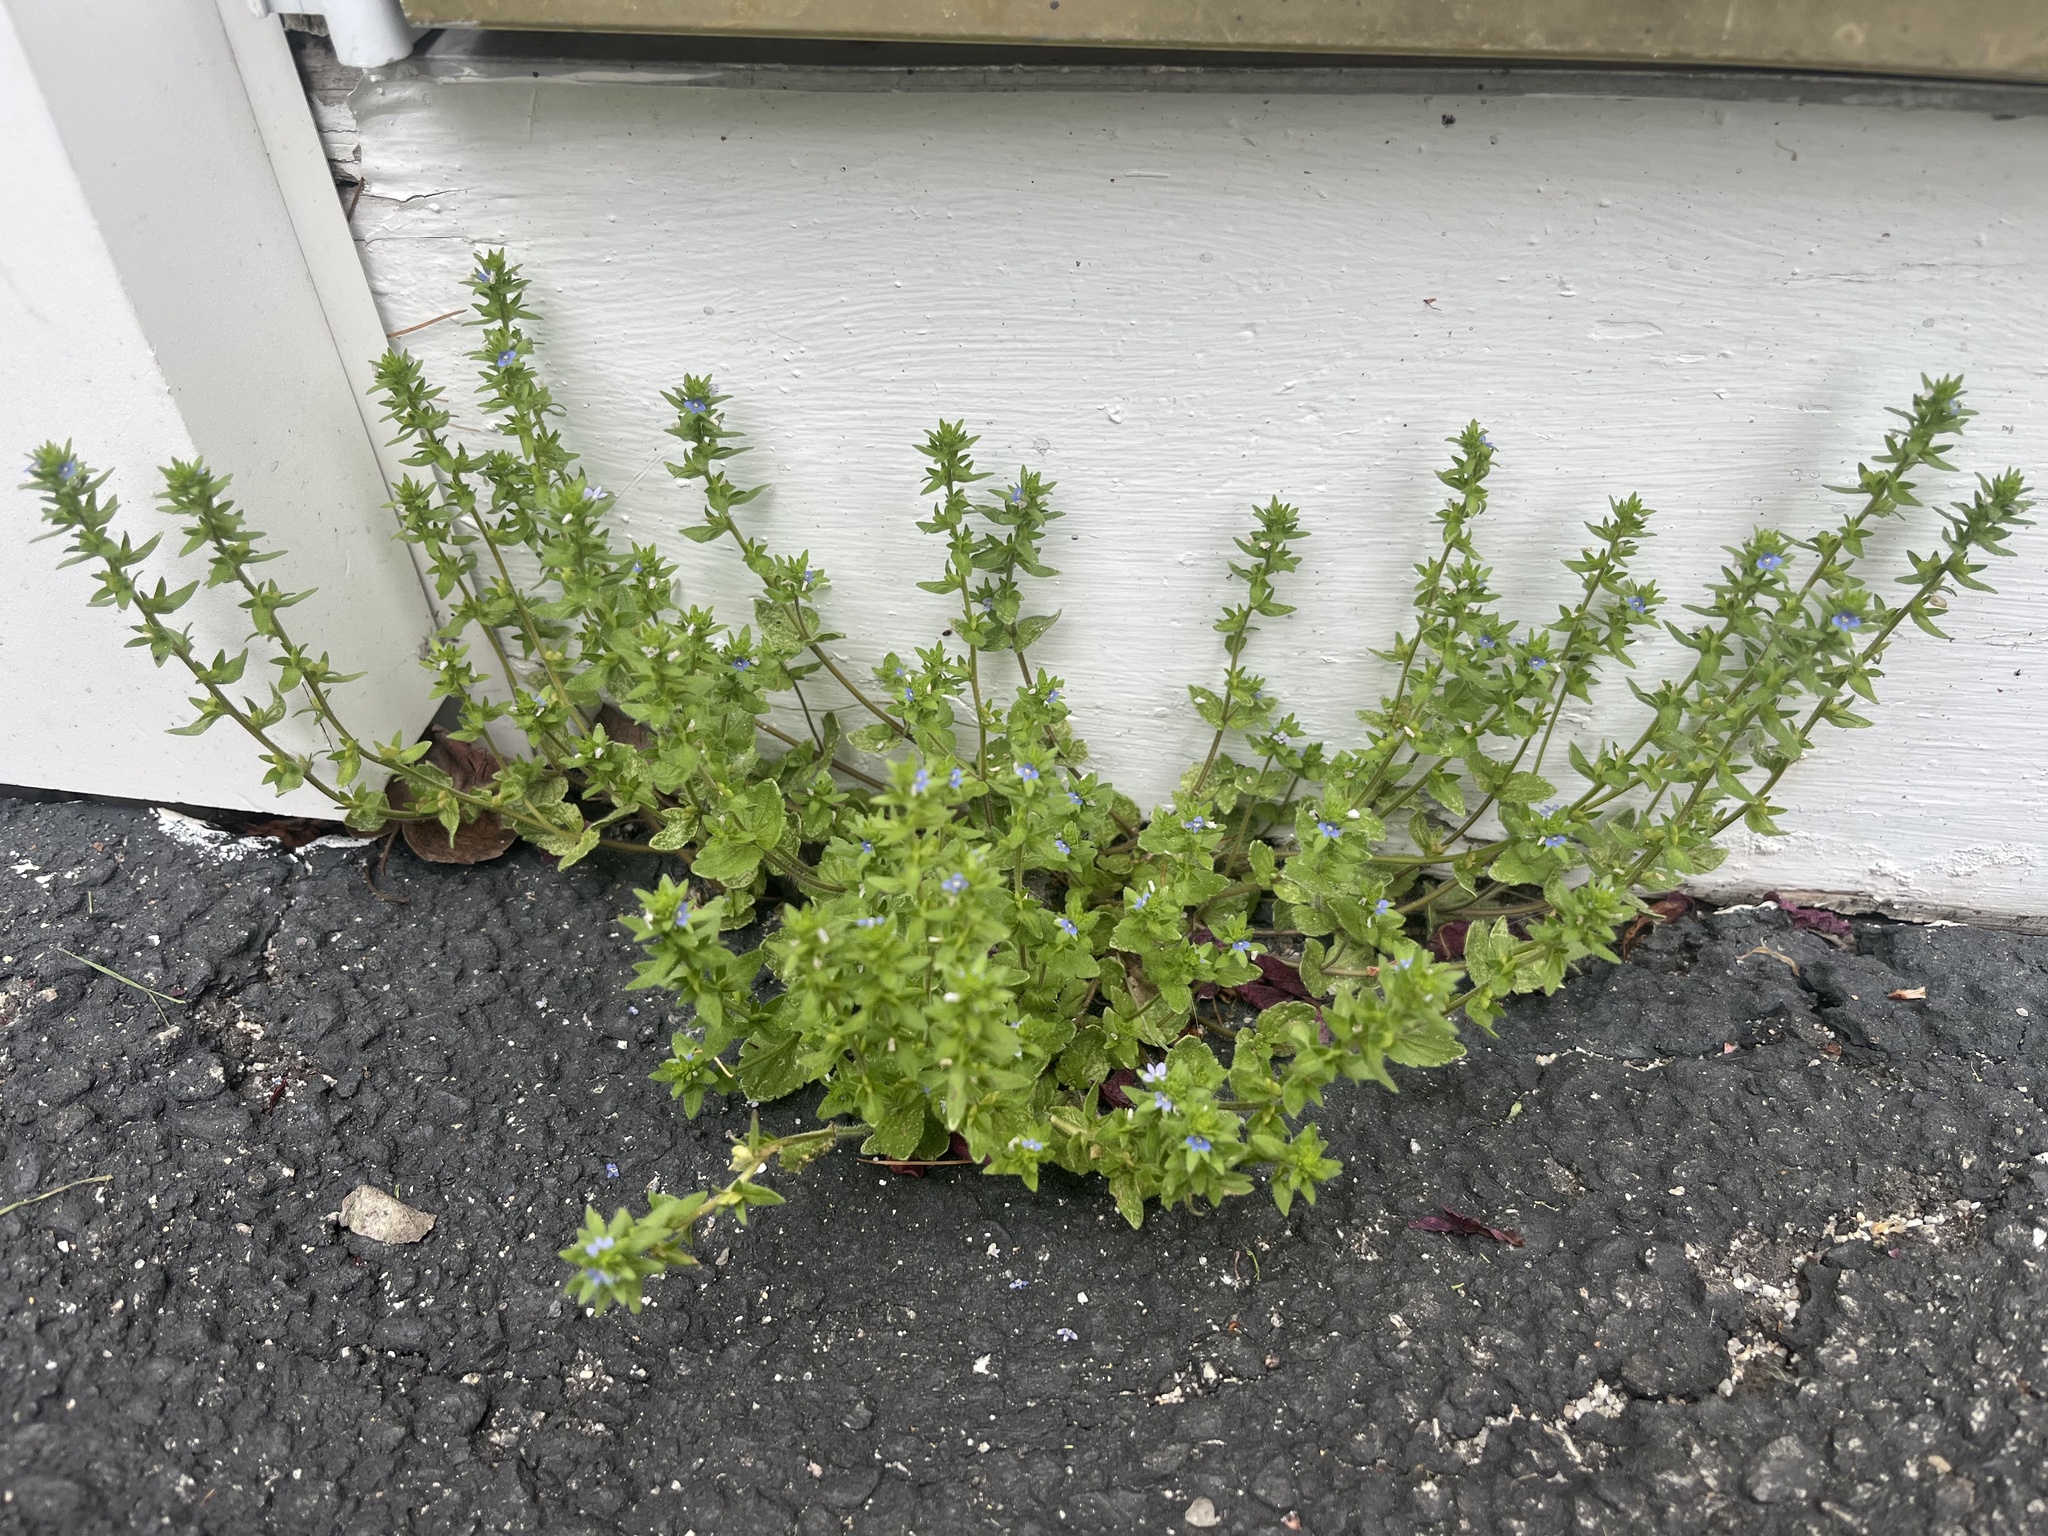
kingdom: Plantae
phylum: Tracheophyta
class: Magnoliopsida
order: Lamiales
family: Plantaginaceae
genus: Veronica
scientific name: Veronica arvensis
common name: Corn speedwell
